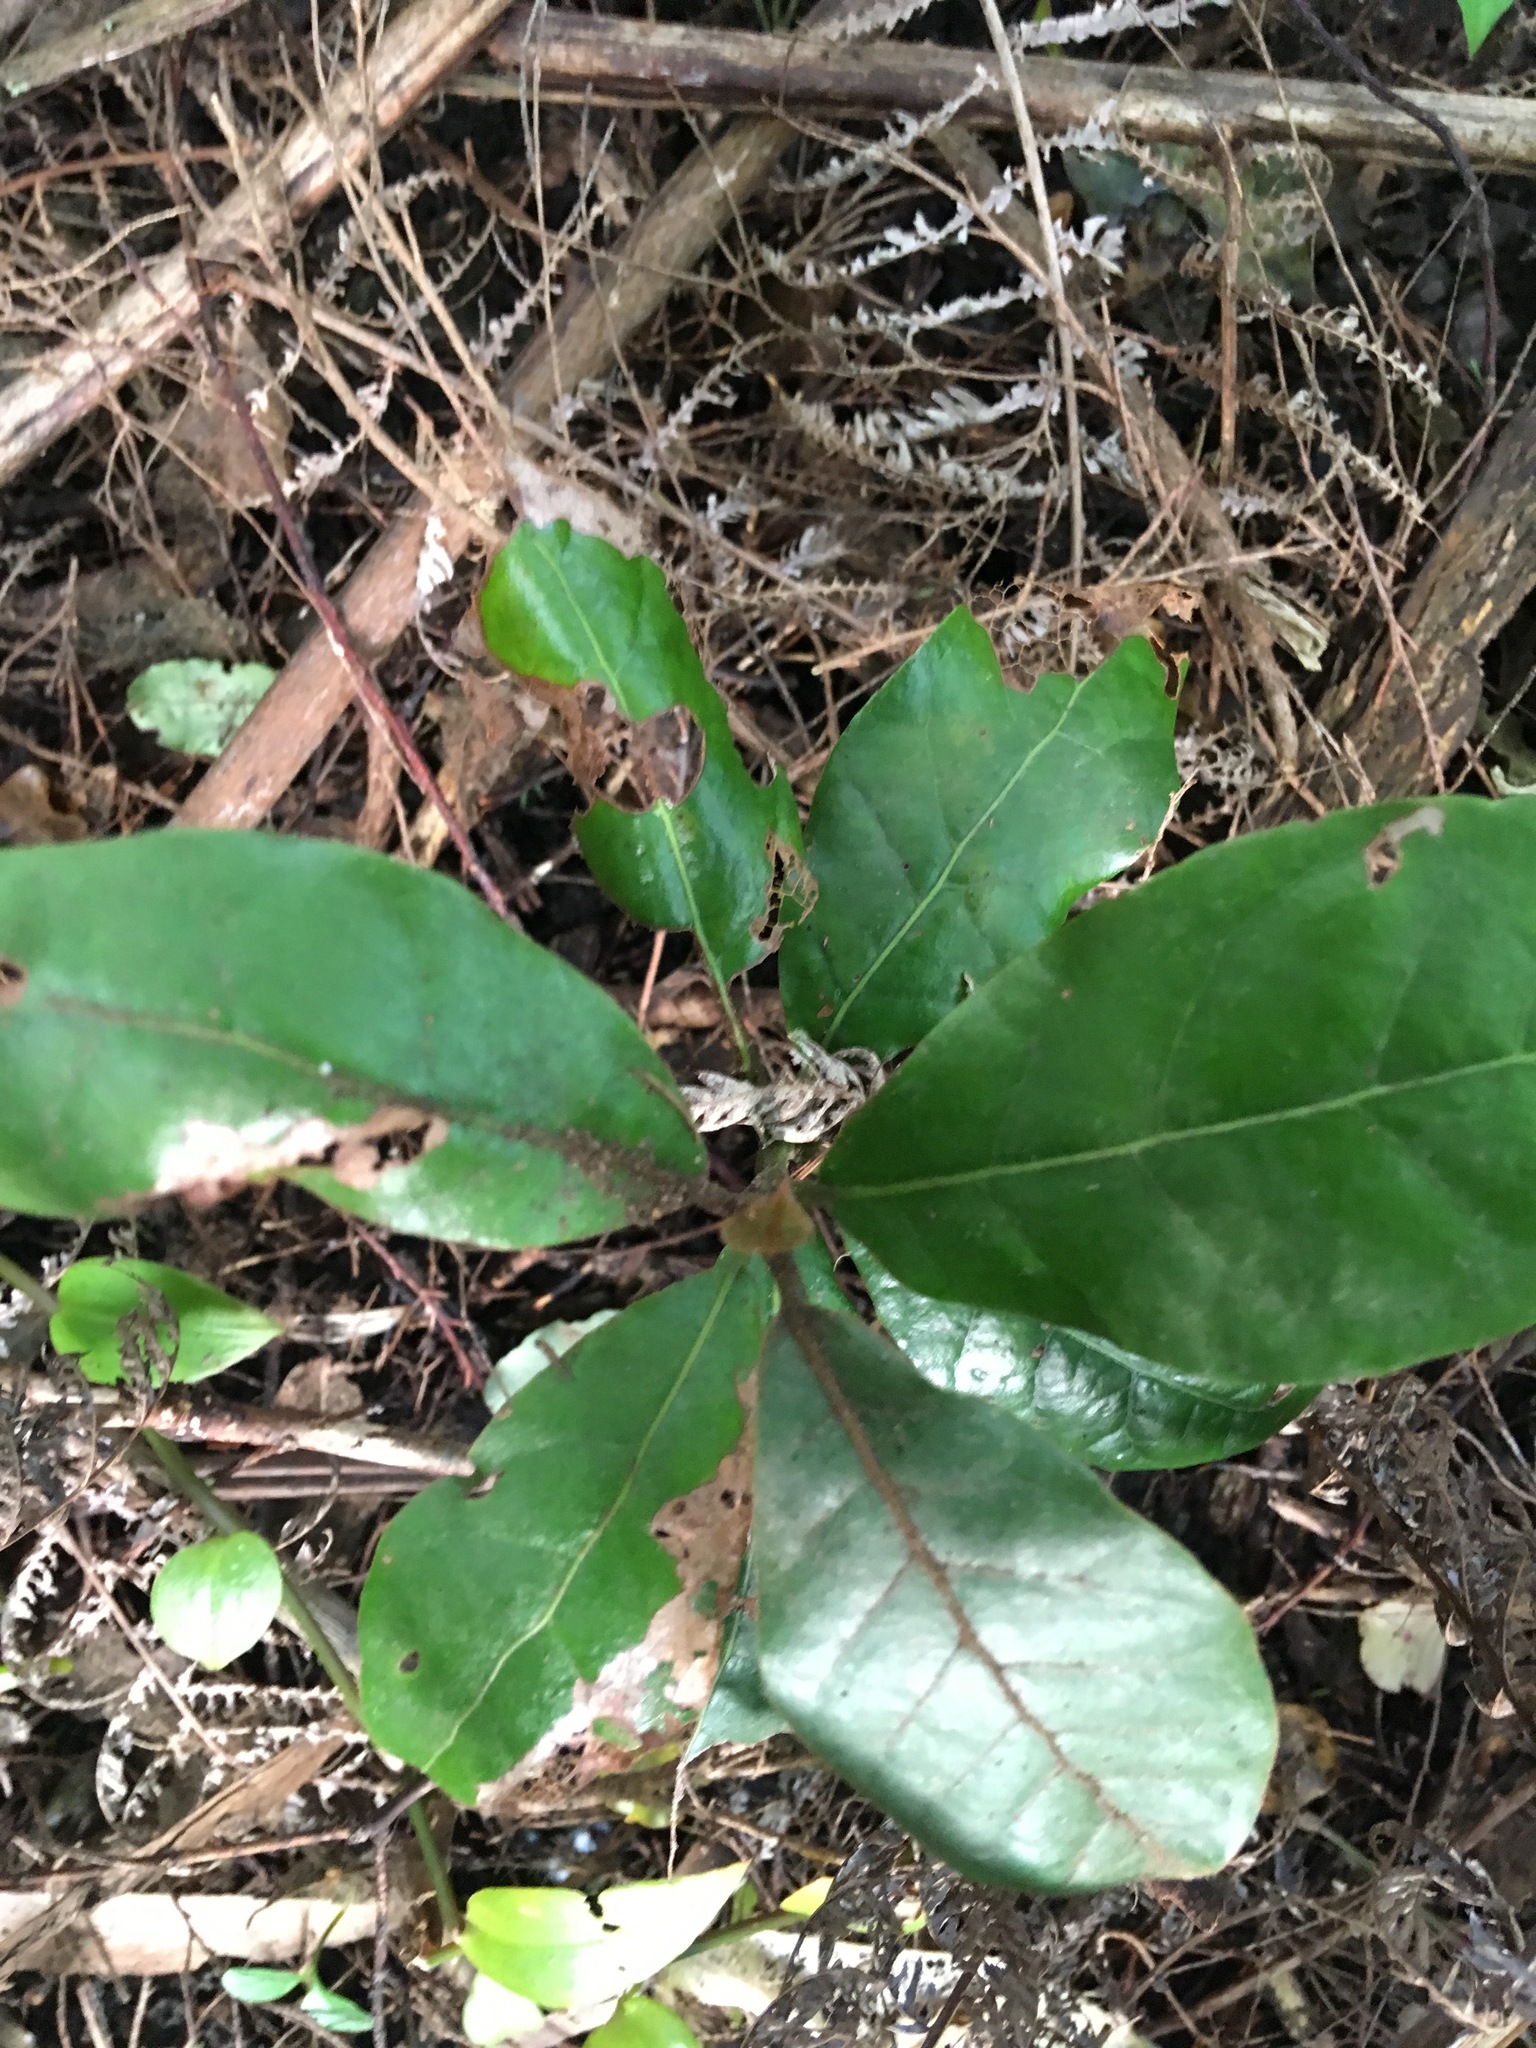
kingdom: Plantae
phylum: Tracheophyta
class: Magnoliopsida
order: Laurales
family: Lauraceae
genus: Beilschmiedia
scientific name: Beilschmiedia tarairi
